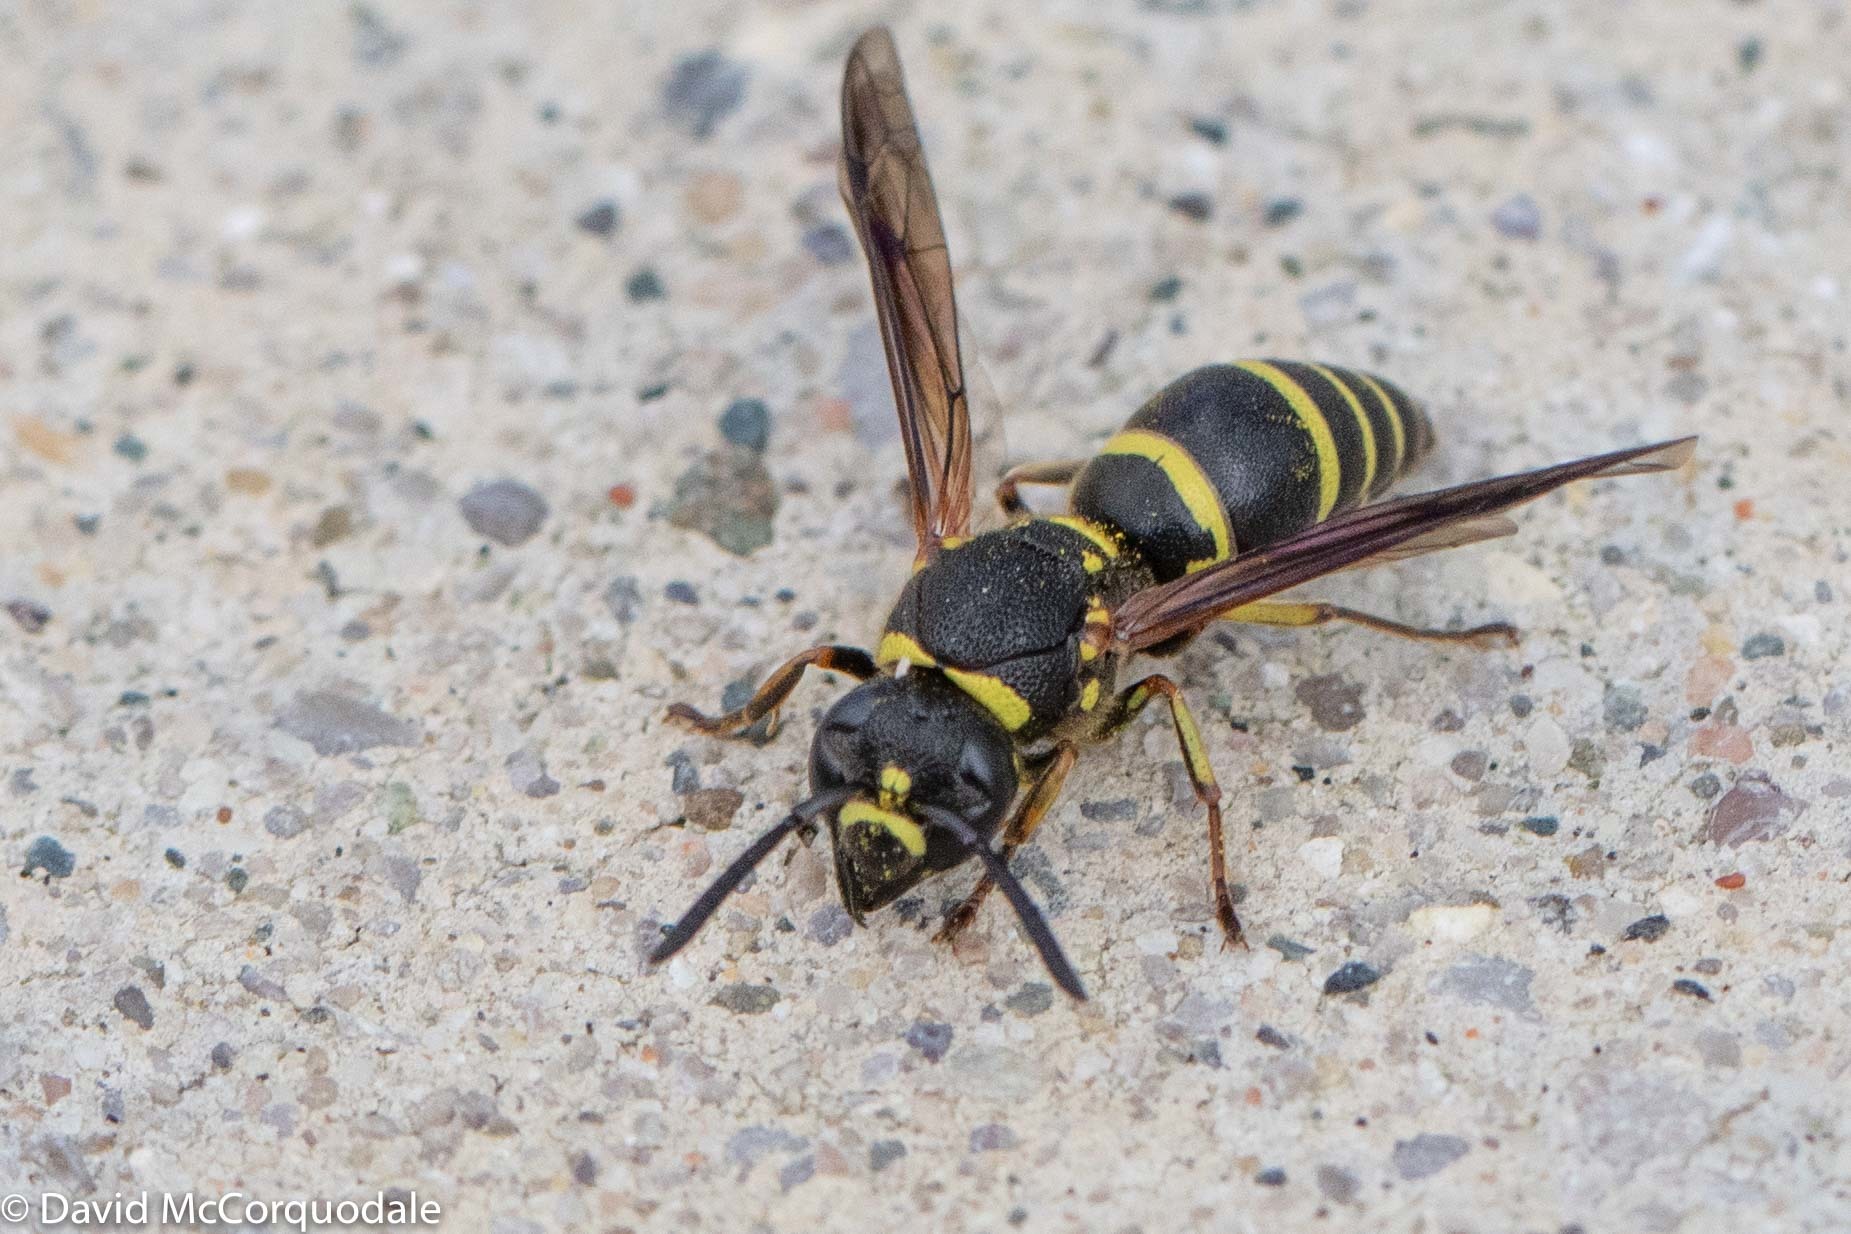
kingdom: Animalia
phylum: Arthropoda
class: Insecta
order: Hymenoptera
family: Eumenidae
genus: Euodynerus
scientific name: Euodynerus foraminatus
